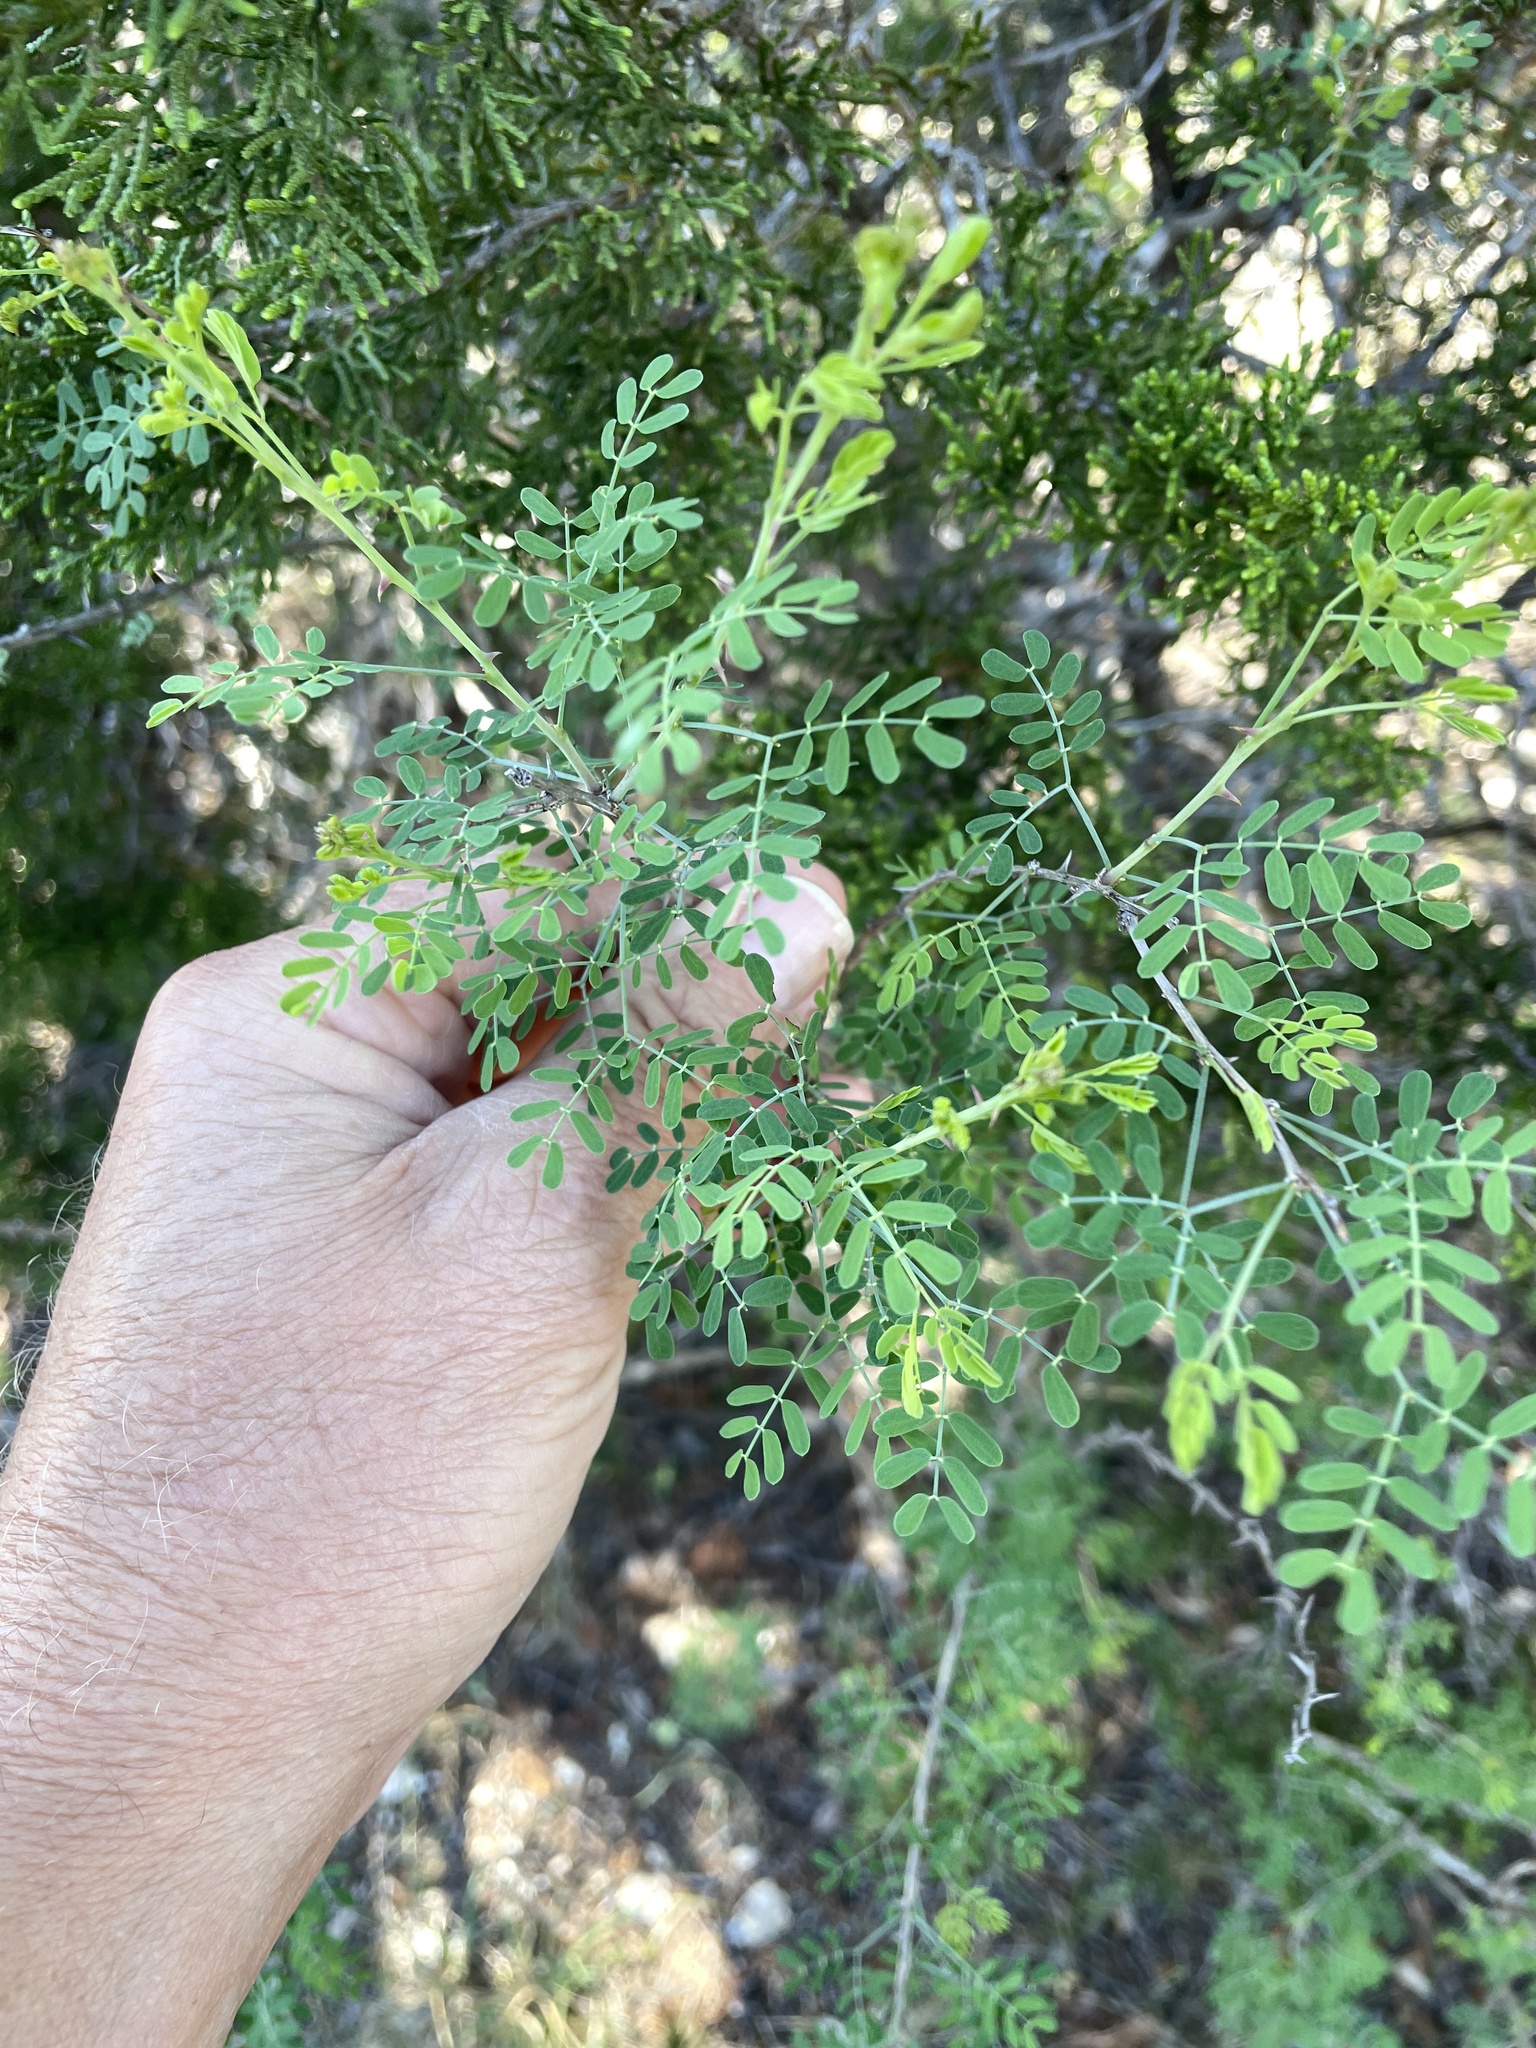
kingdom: Plantae
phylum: Tracheophyta
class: Magnoliopsida
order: Fabales
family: Fabaceae
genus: Mimosa
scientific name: Mimosa borealis
